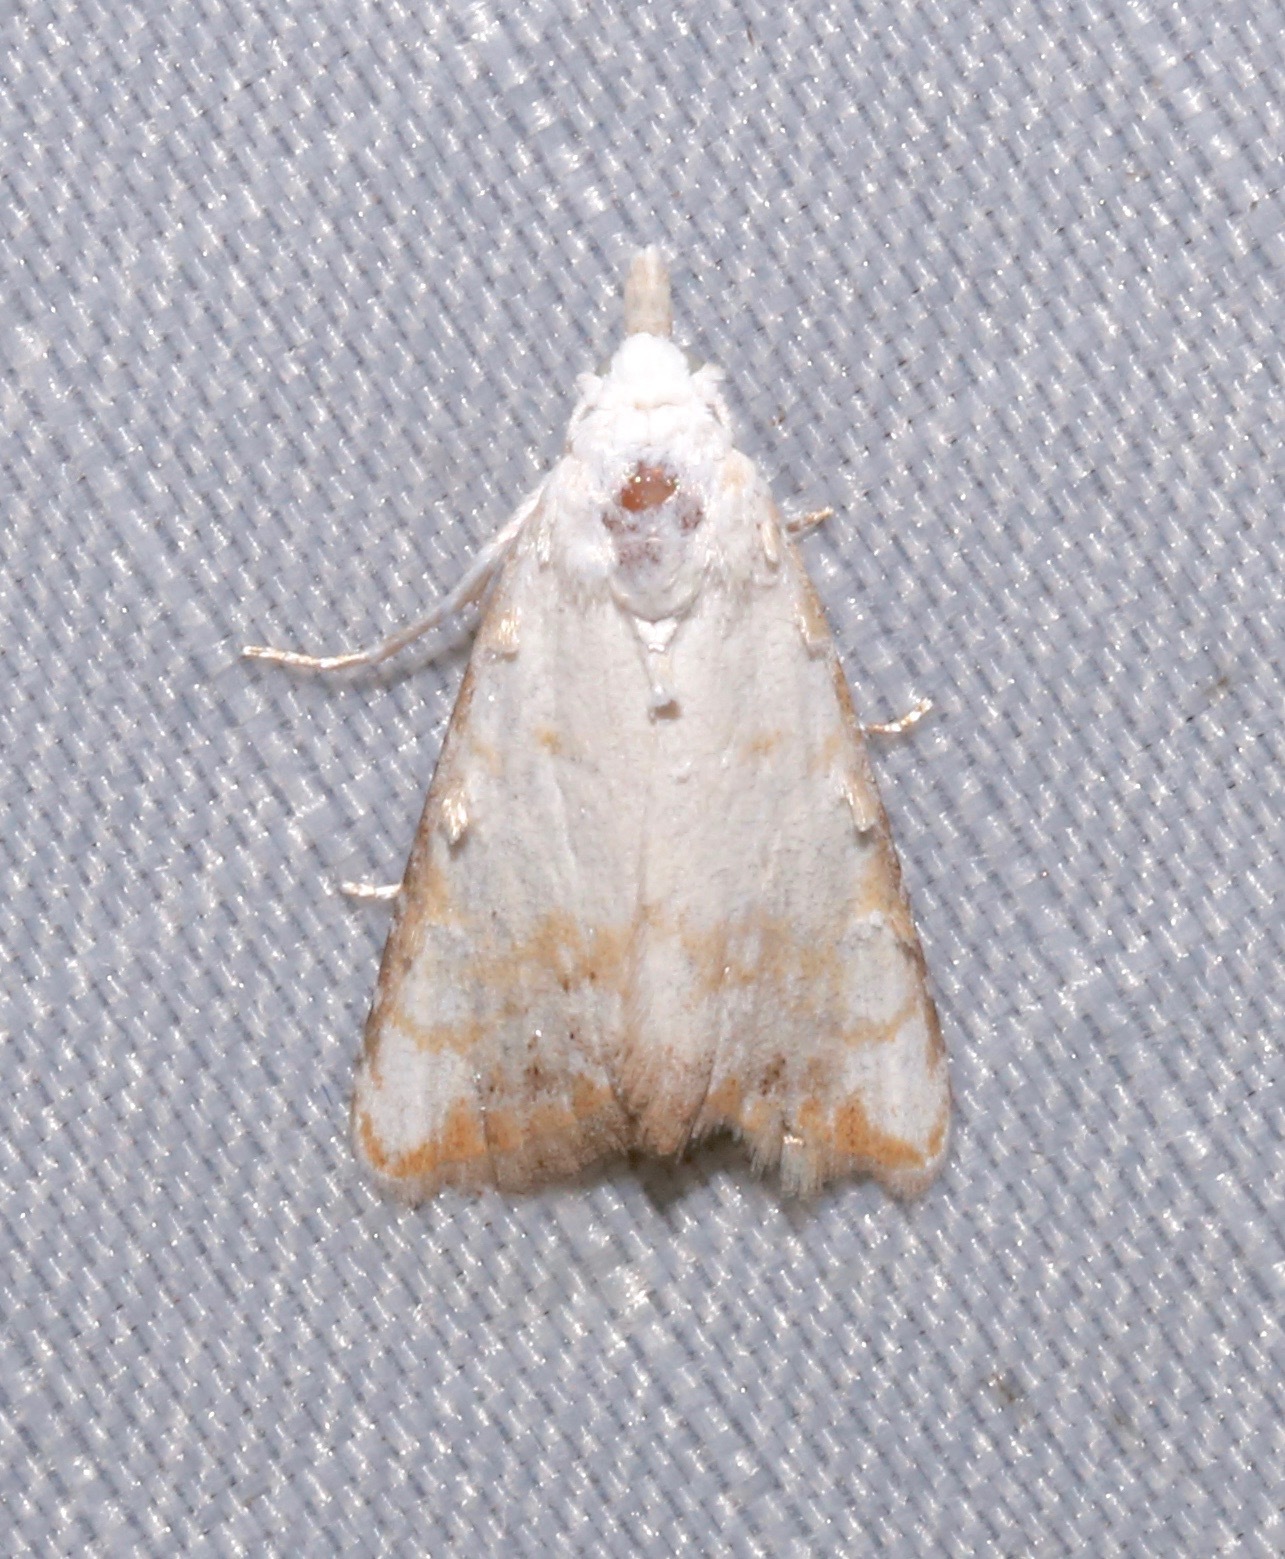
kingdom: Animalia
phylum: Arthropoda
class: Insecta
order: Lepidoptera
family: Nolidae
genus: Nola
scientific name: Nola cereella
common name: Sorghum webworm moth
